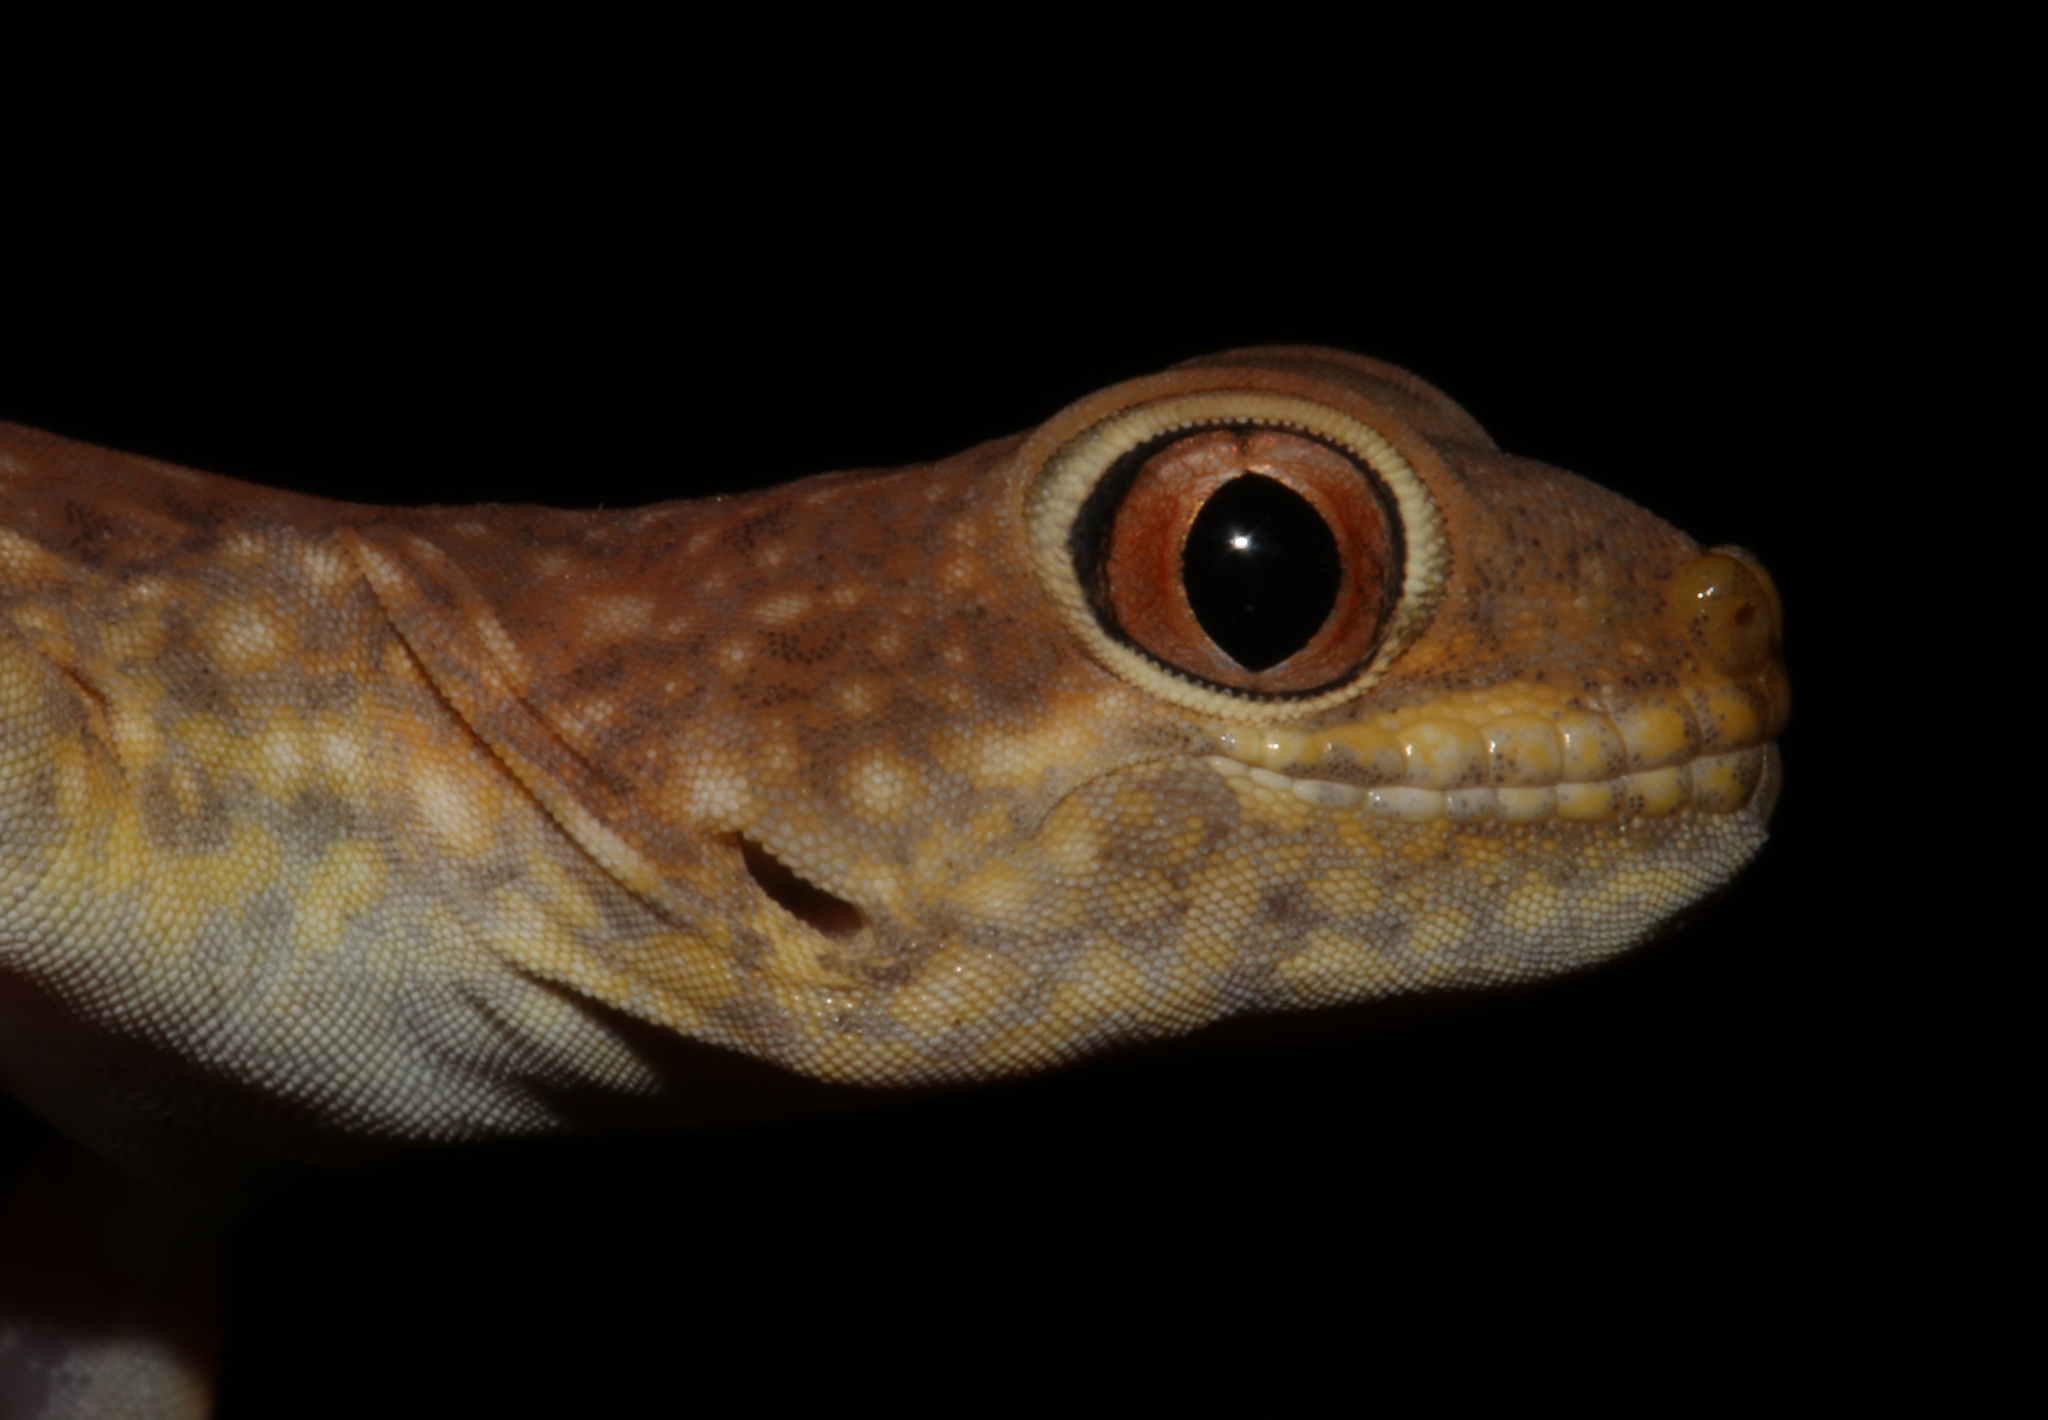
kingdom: Animalia
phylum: Chordata
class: Squamata
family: Gekkonidae
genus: Ptenopus
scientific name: Ptenopus kochi
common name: Koch's chirping gecko
